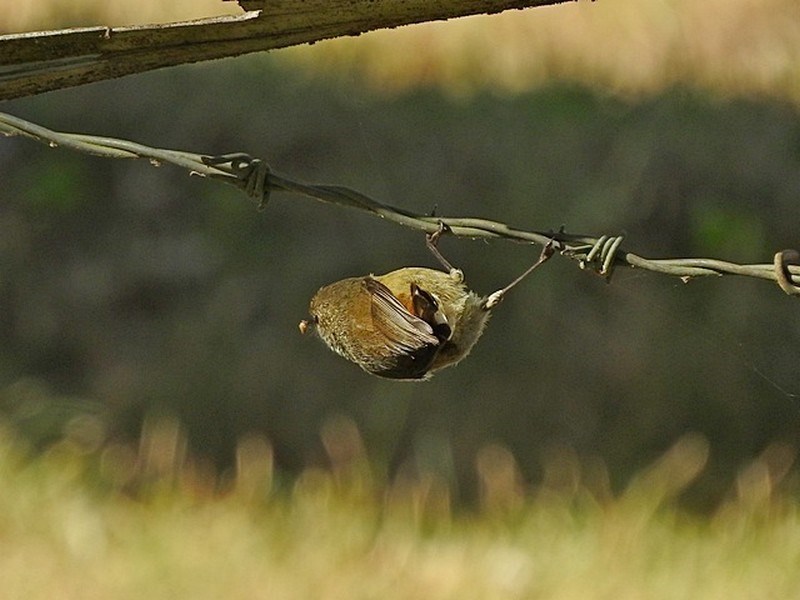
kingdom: Animalia
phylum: Chordata
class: Aves
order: Passeriformes
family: Acanthizidae
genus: Acanthiza
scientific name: Acanthiza pusilla
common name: Brown thornbill
